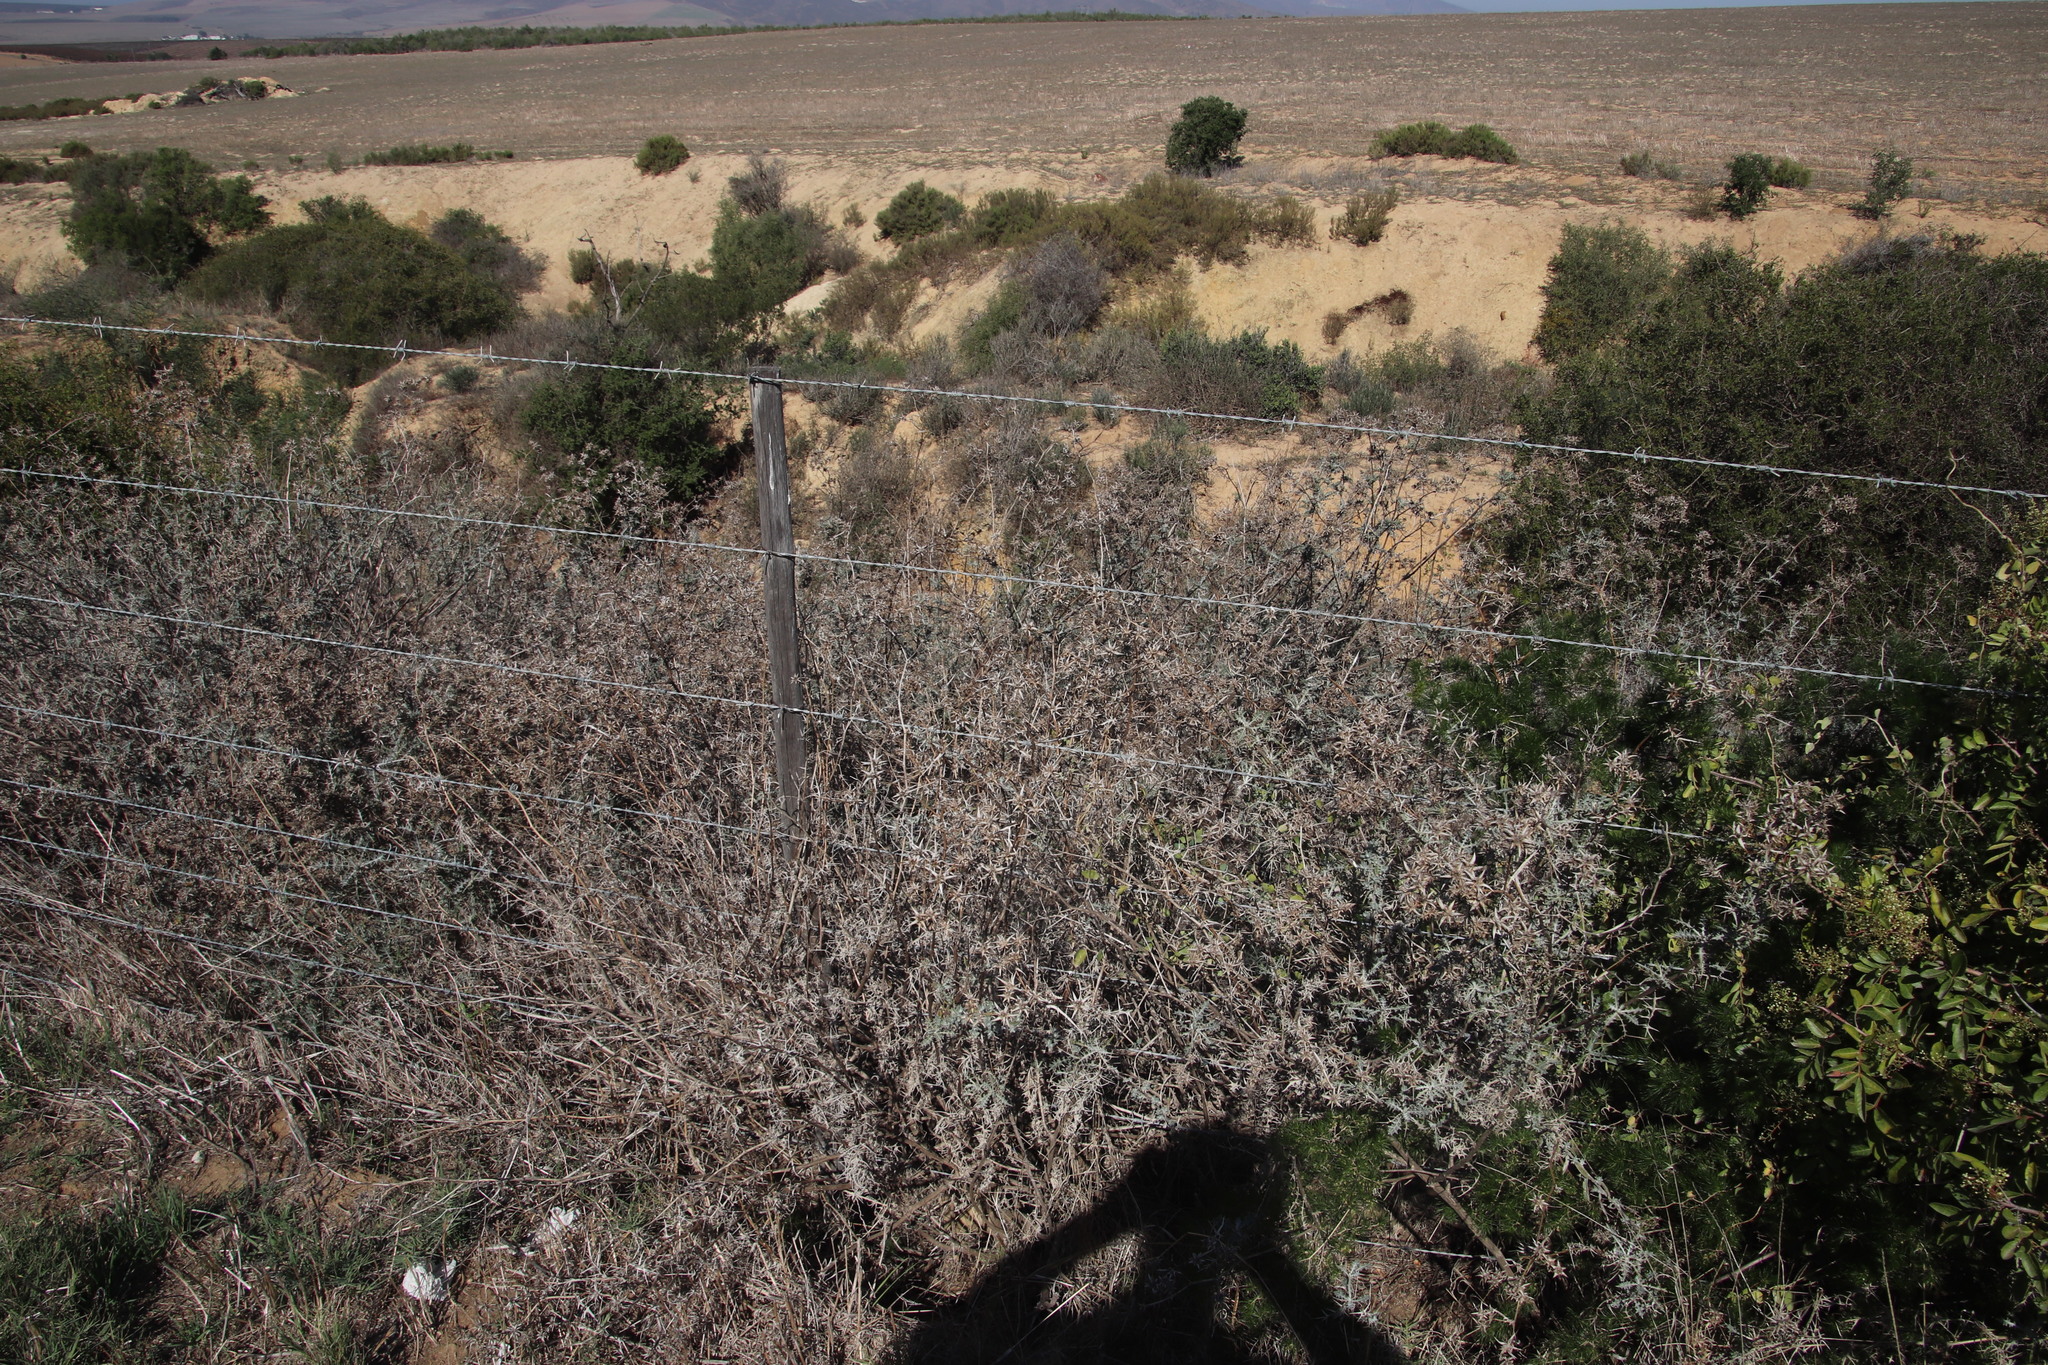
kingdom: Plantae
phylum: Tracheophyta
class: Magnoliopsida
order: Asterales
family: Asteraceae
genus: Berkheya
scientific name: Berkheya rigida
